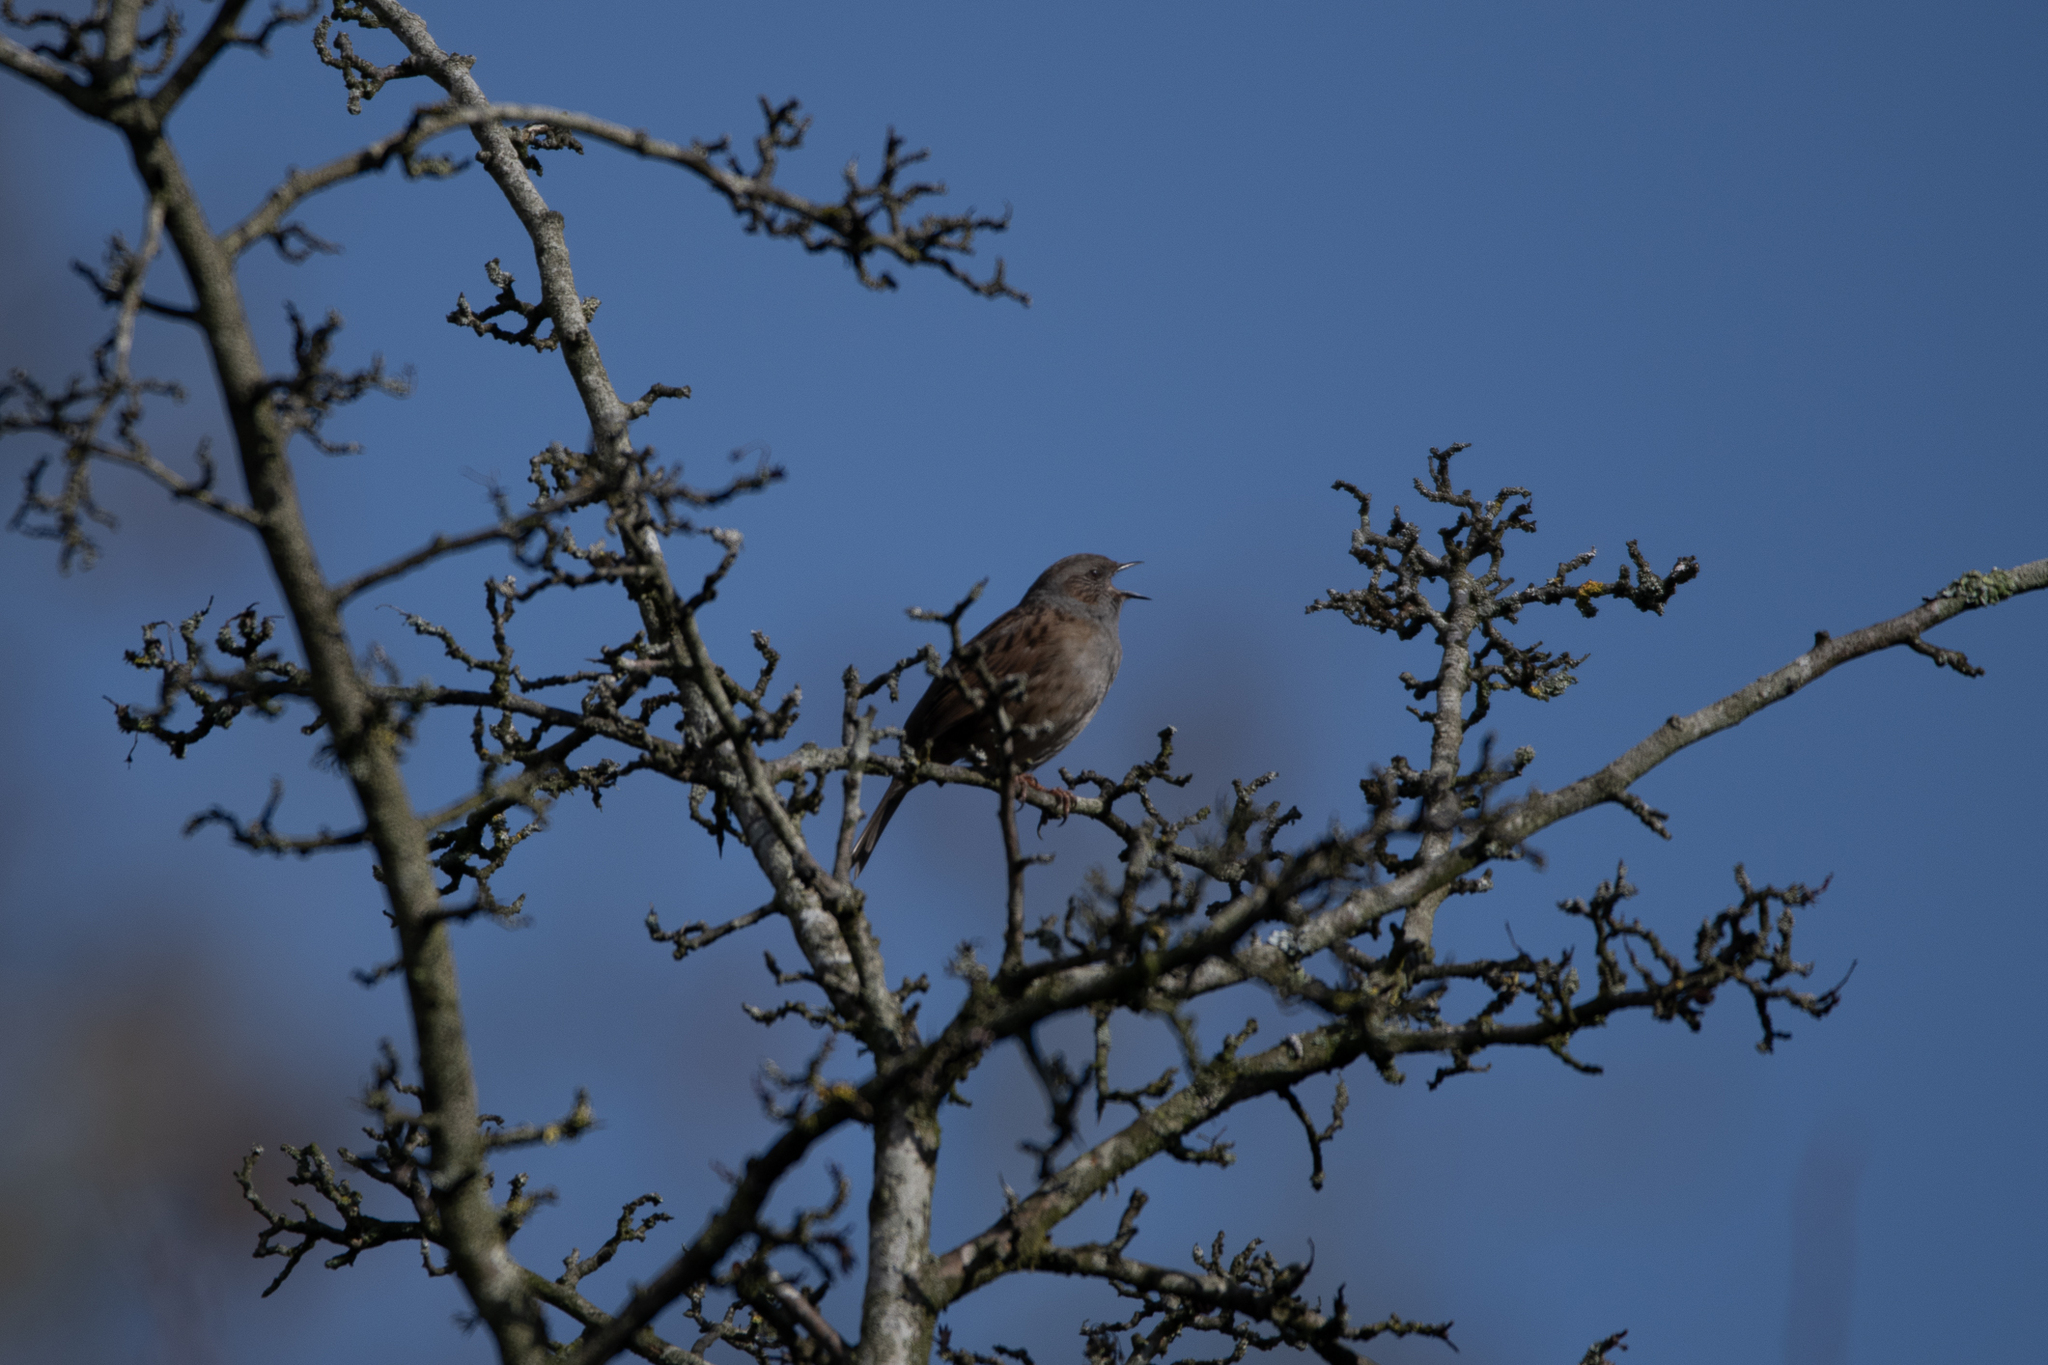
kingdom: Animalia
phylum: Chordata
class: Aves
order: Passeriformes
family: Prunellidae
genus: Prunella
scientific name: Prunella modularis
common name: Dunnock
